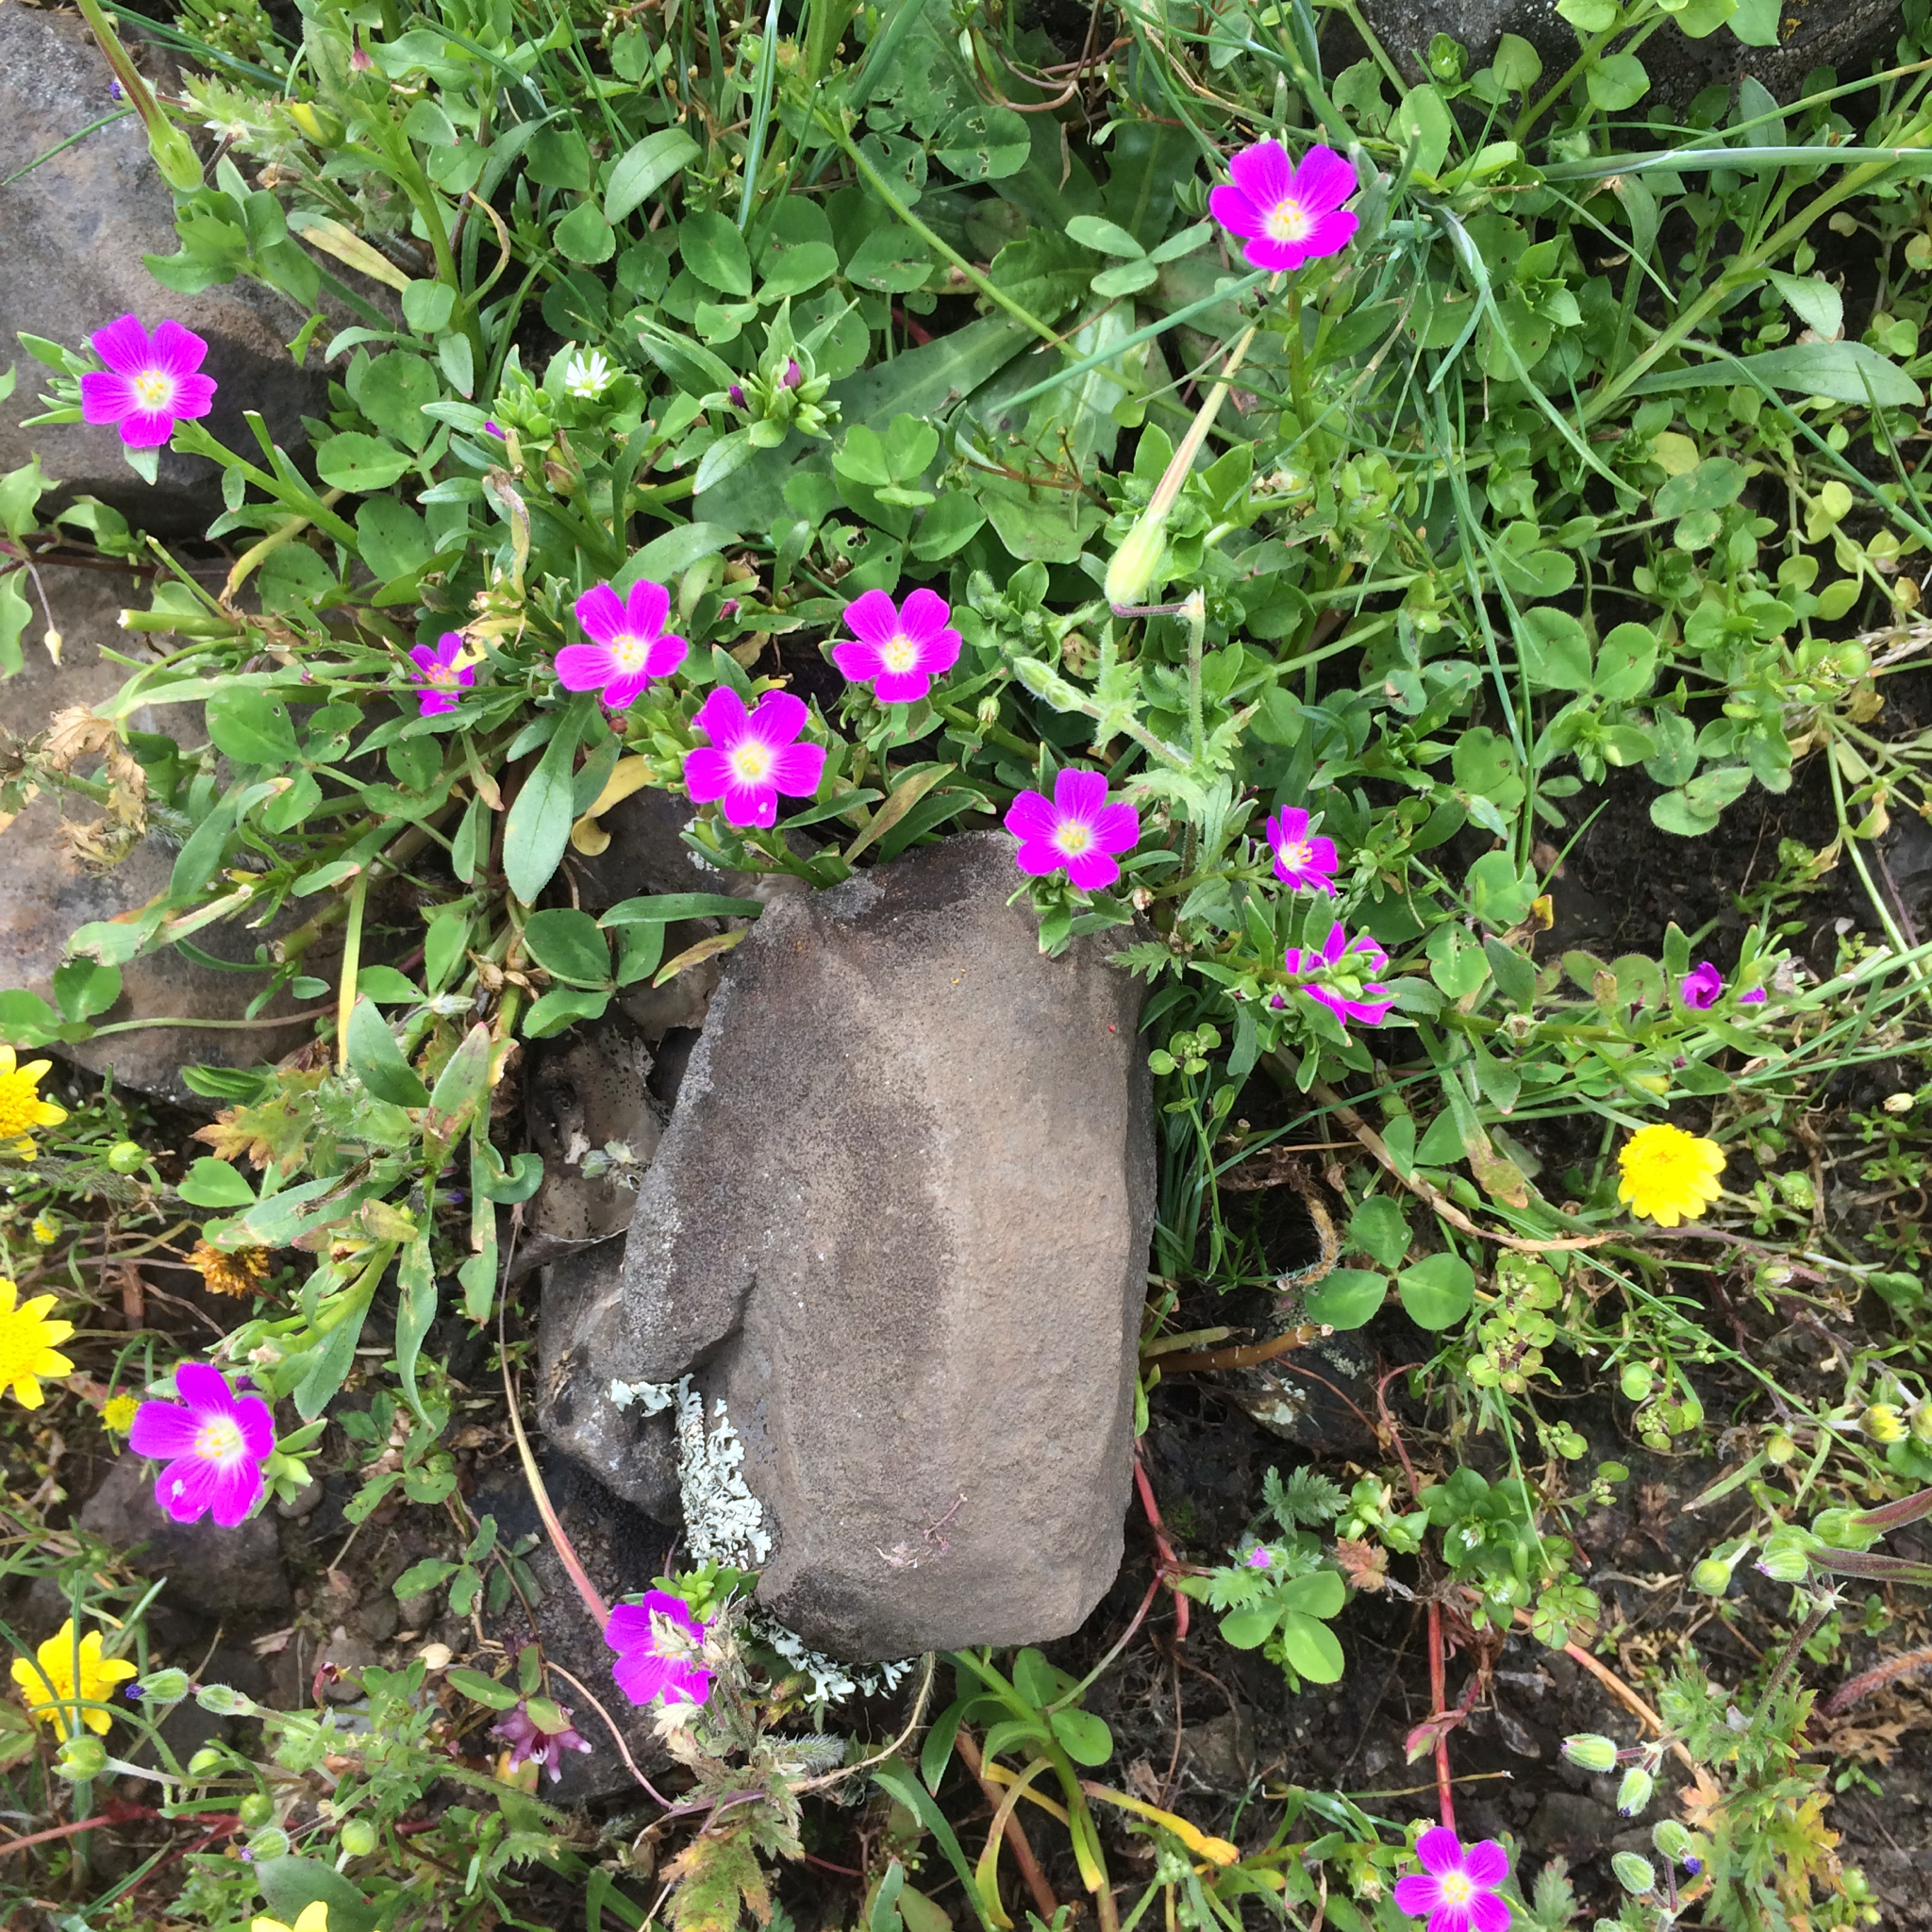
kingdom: Plantae
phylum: Tracheophyta
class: Magnoliopsida
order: Caryophyllales
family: Montiaceae
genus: Calandrinia
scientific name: Calandrinia menziesii
